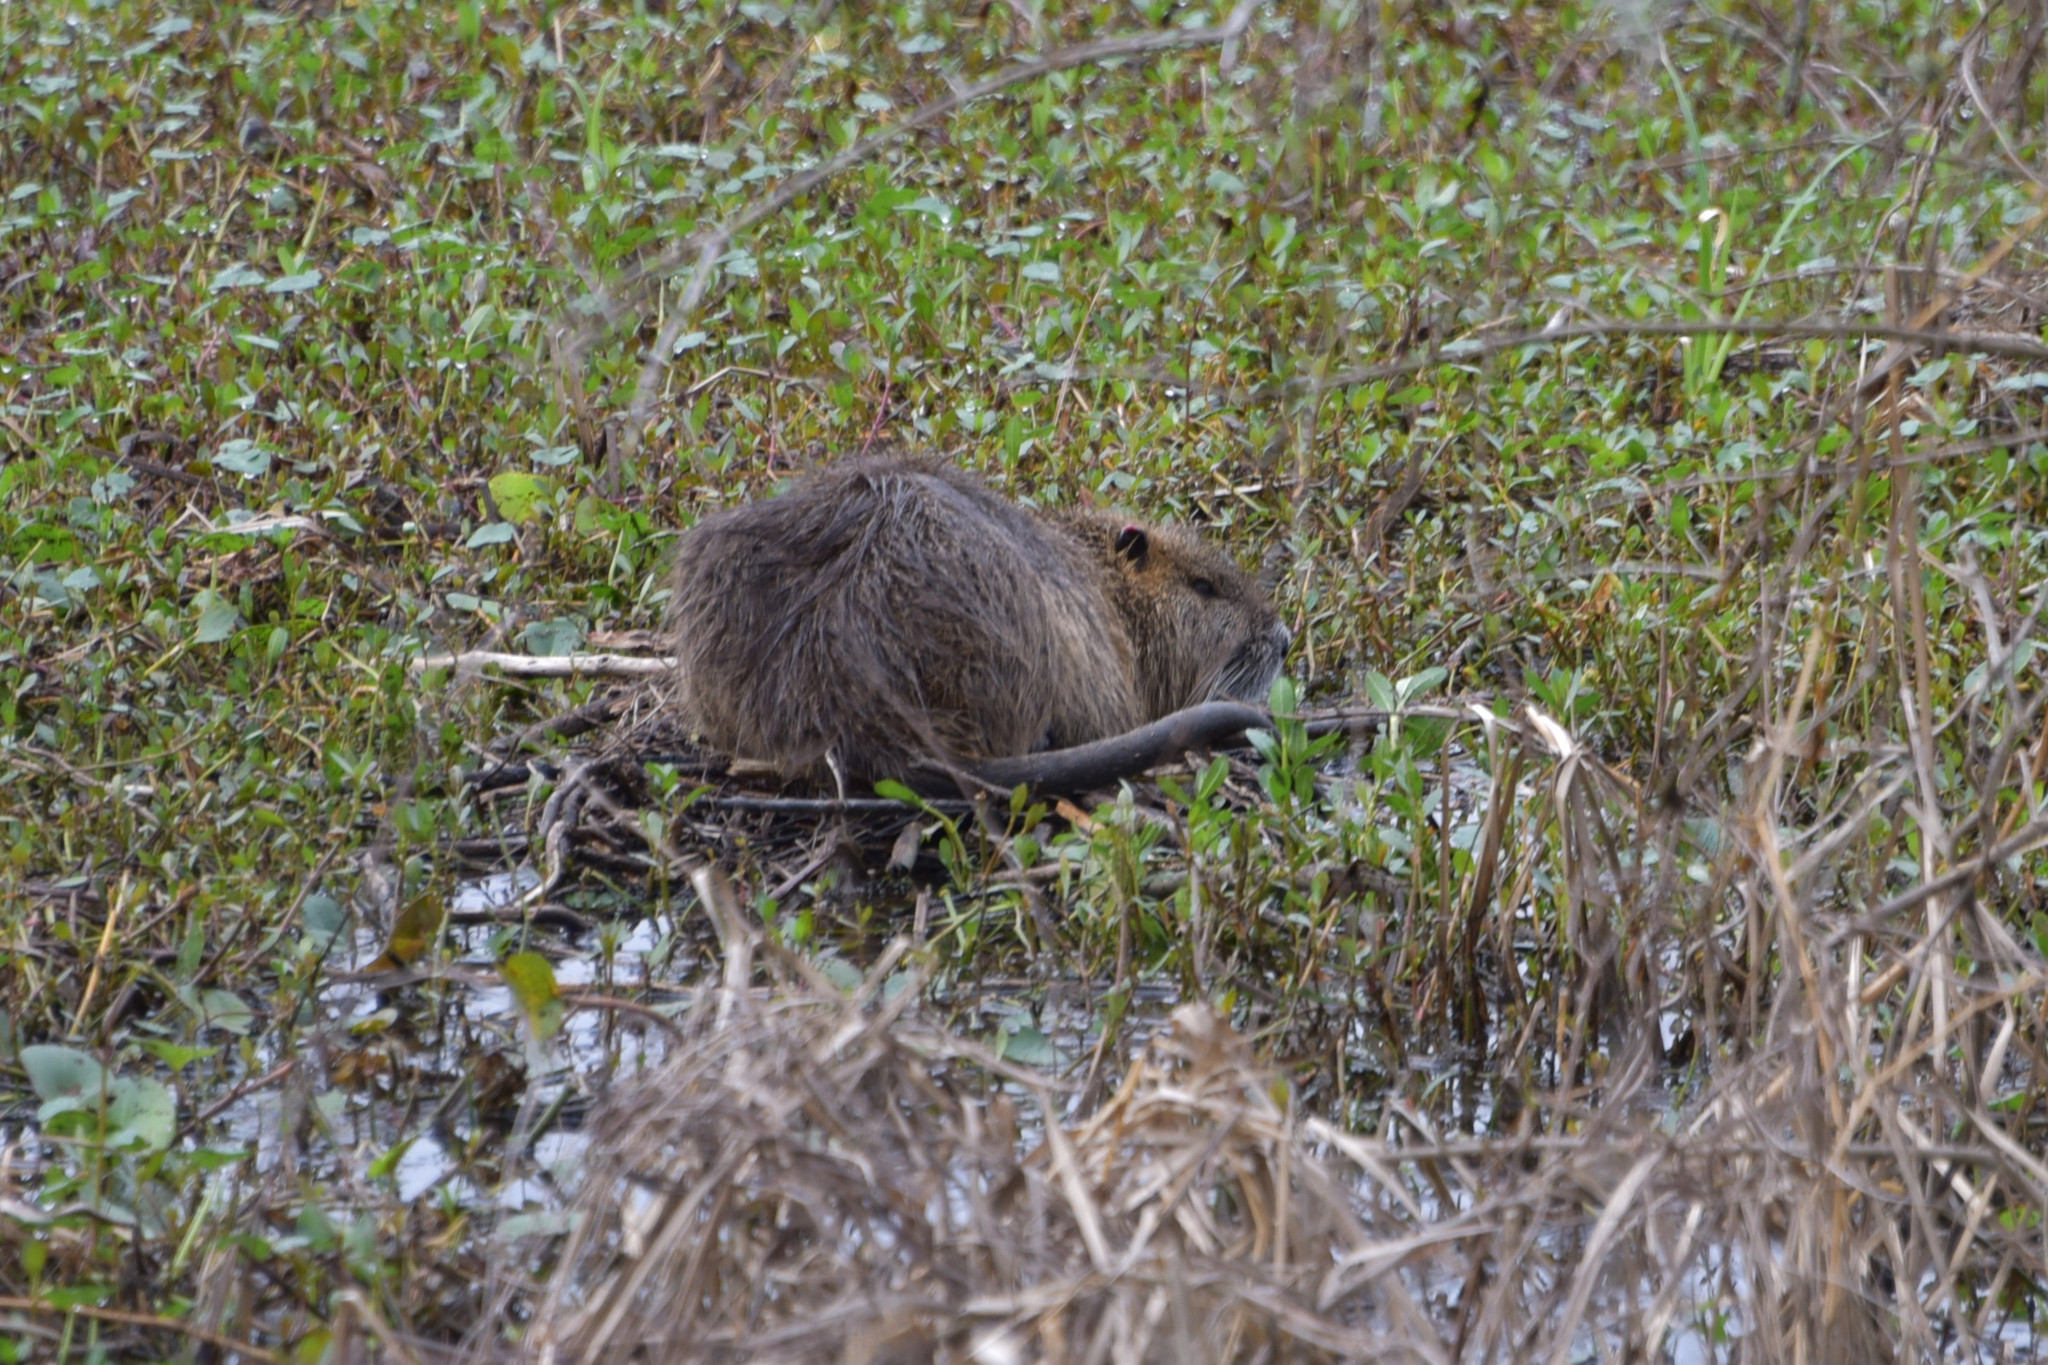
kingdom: Animalia
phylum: Chordata
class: Mammalia
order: Rodentia
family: Myocastoridae
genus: Myocastor
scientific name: Myocastor coypus
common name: Coypu
